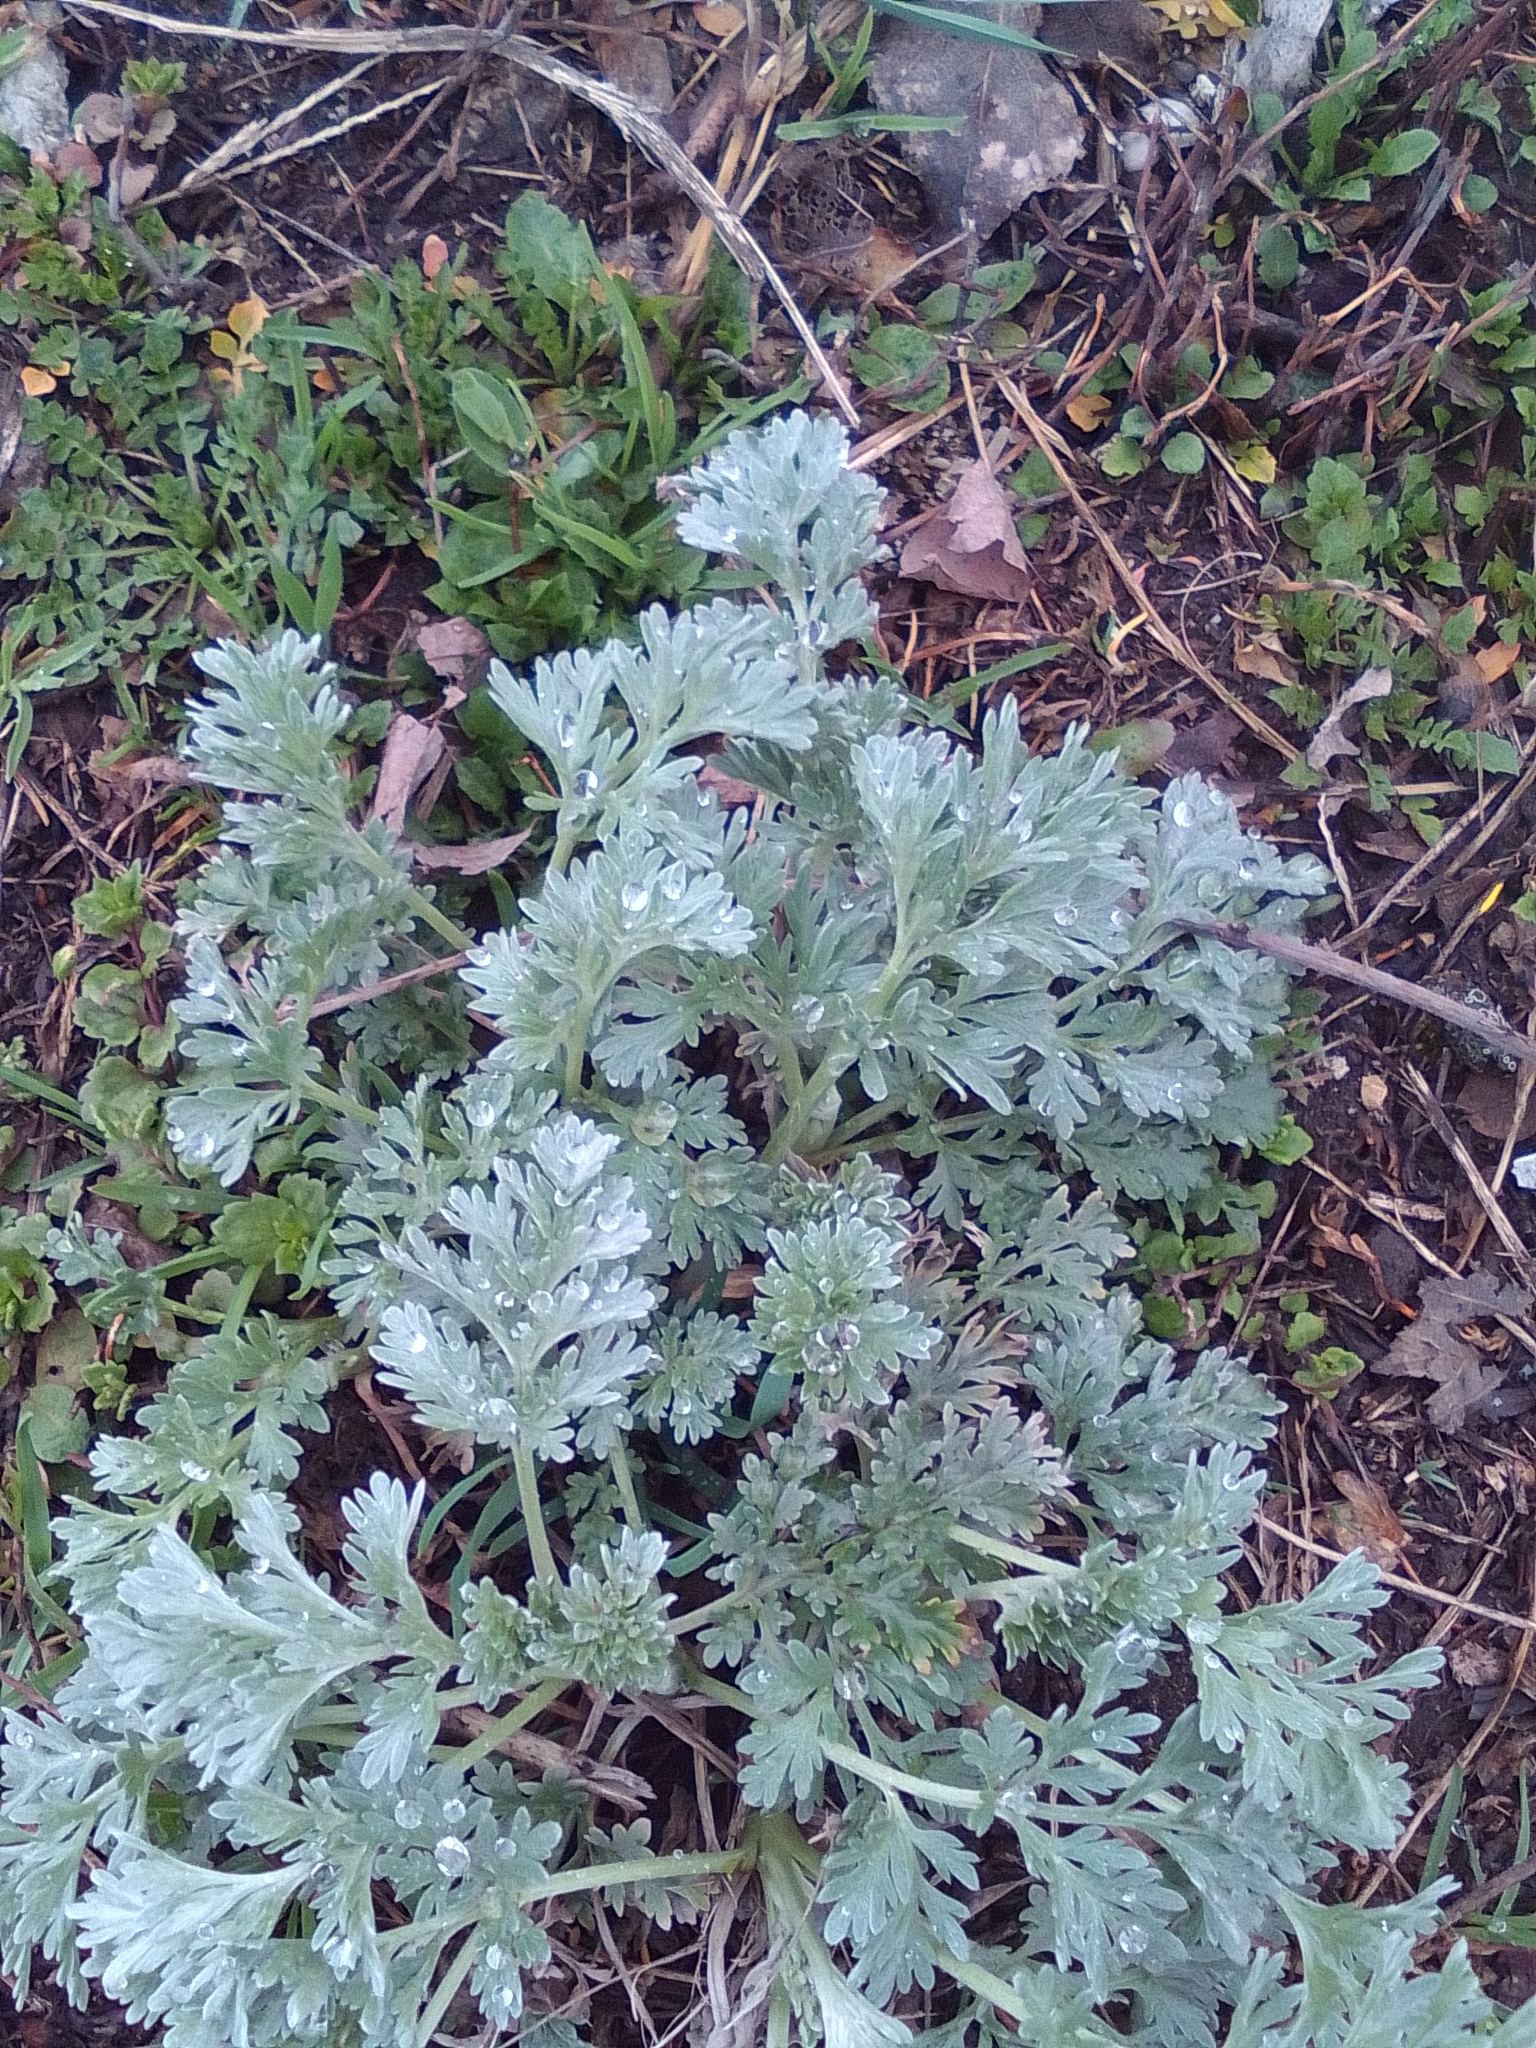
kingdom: Plantae
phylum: Tracheophyta
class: Magnoliopsida
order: Asterales
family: Asteraceae
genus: Artemisia
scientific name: Artemisia absinthium
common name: Wormwood
